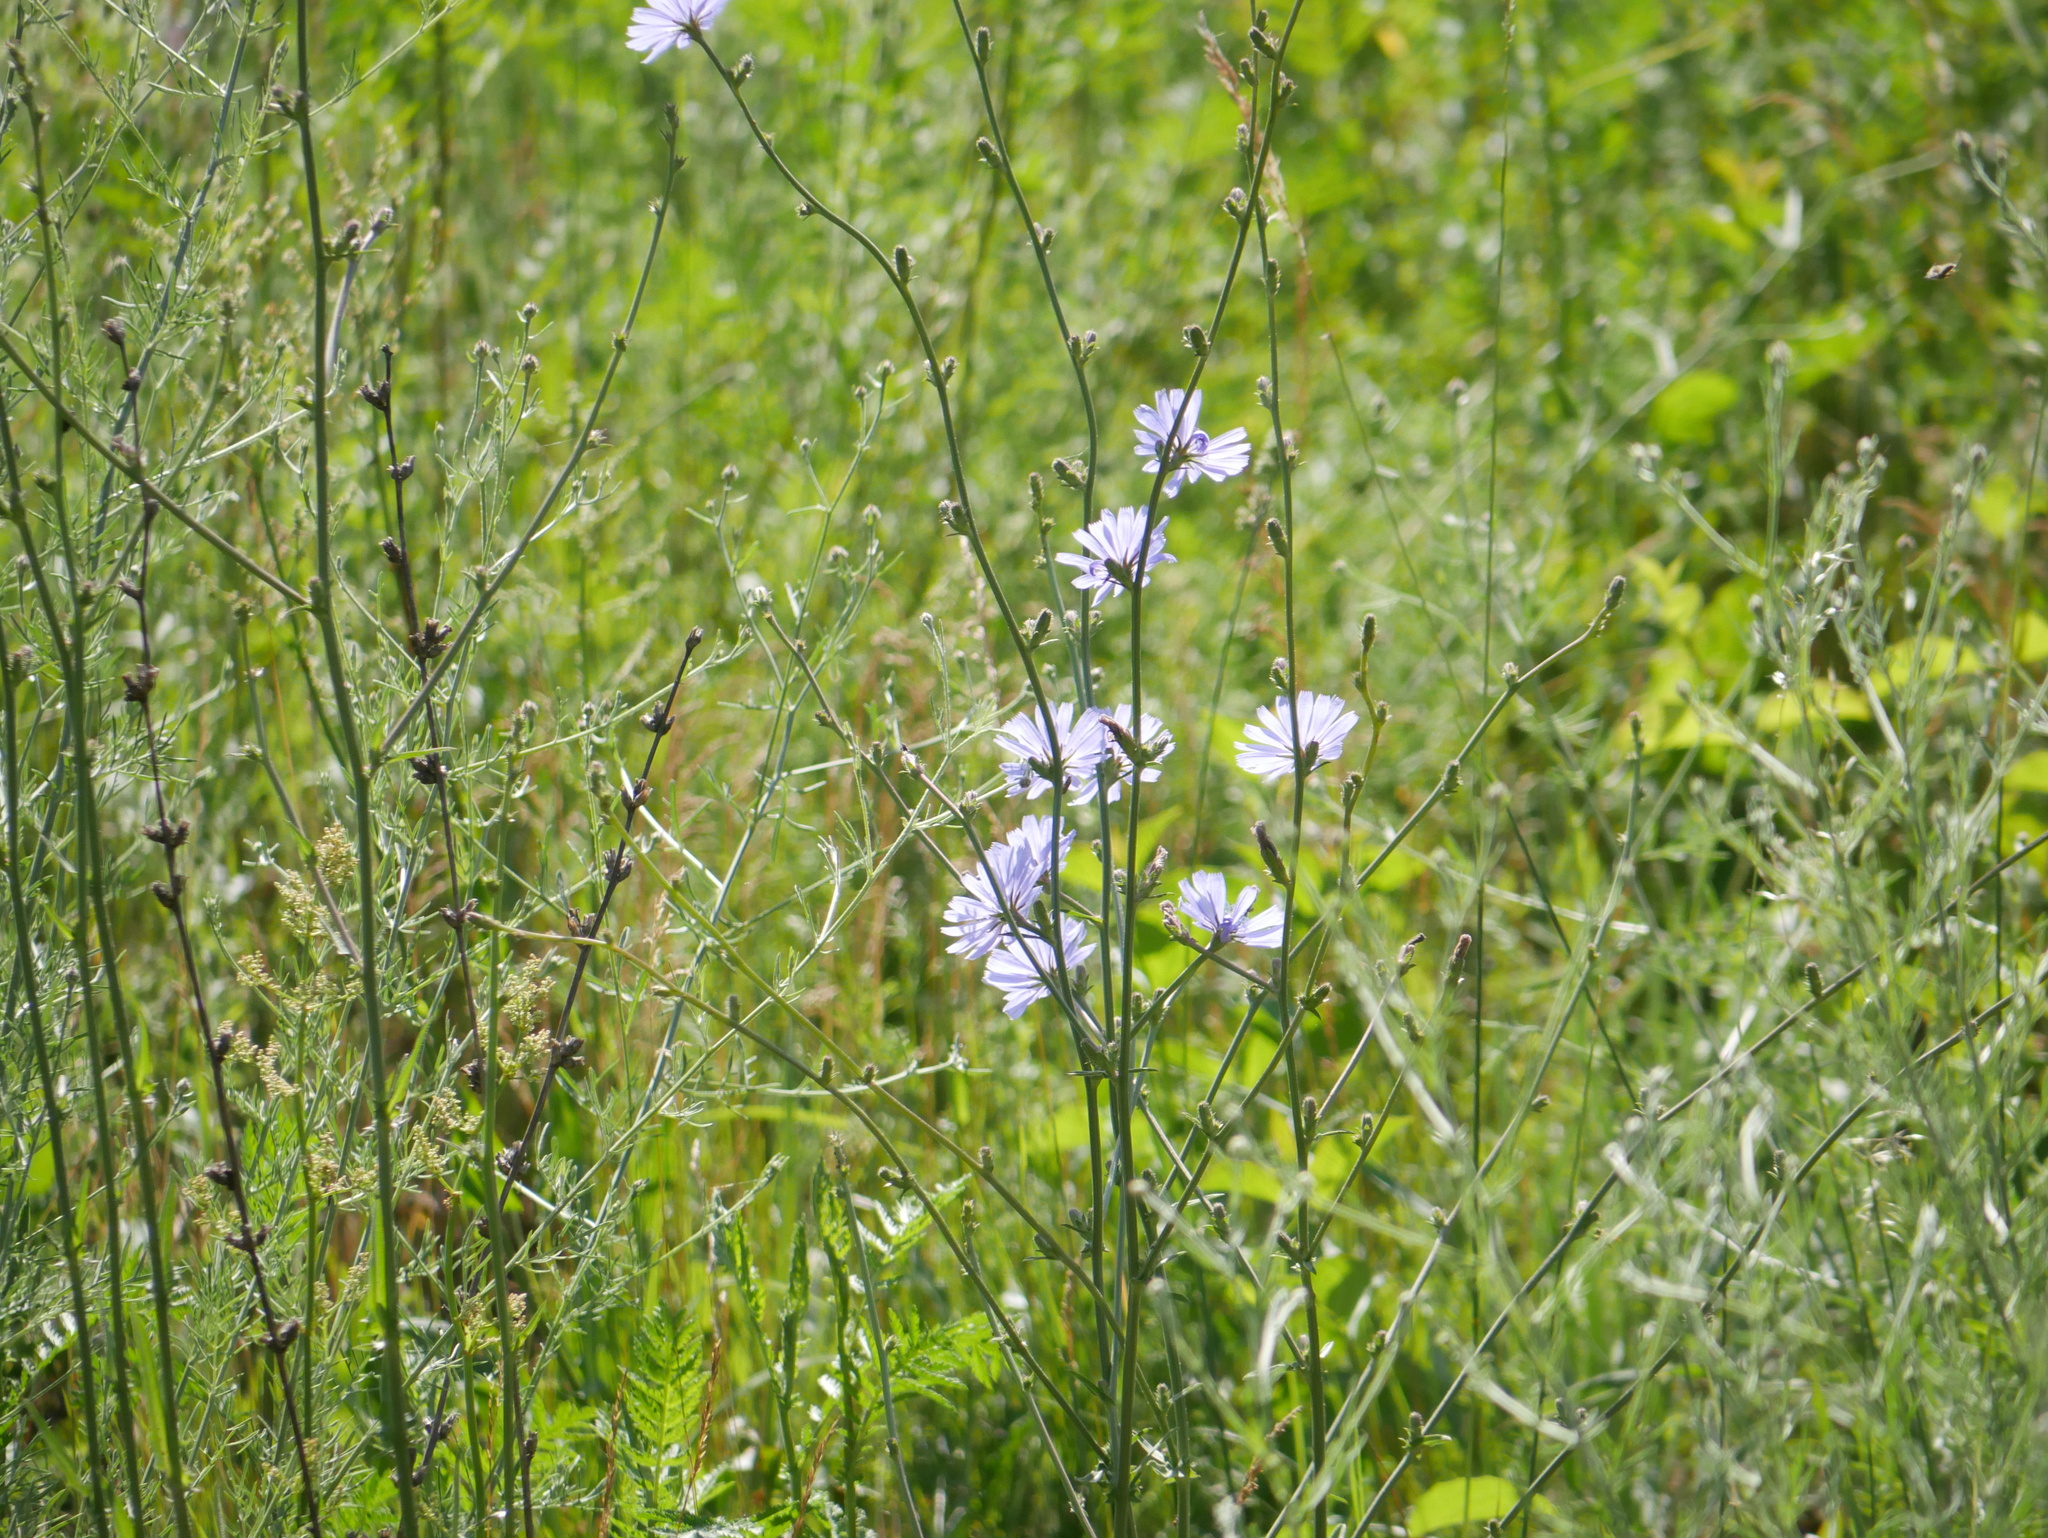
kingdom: Plantae
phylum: Tracheophyta
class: Magnoliopsida
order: Asterales
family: Asteraceae
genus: Cichorium
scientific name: Cichorium intybus
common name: Chicory
